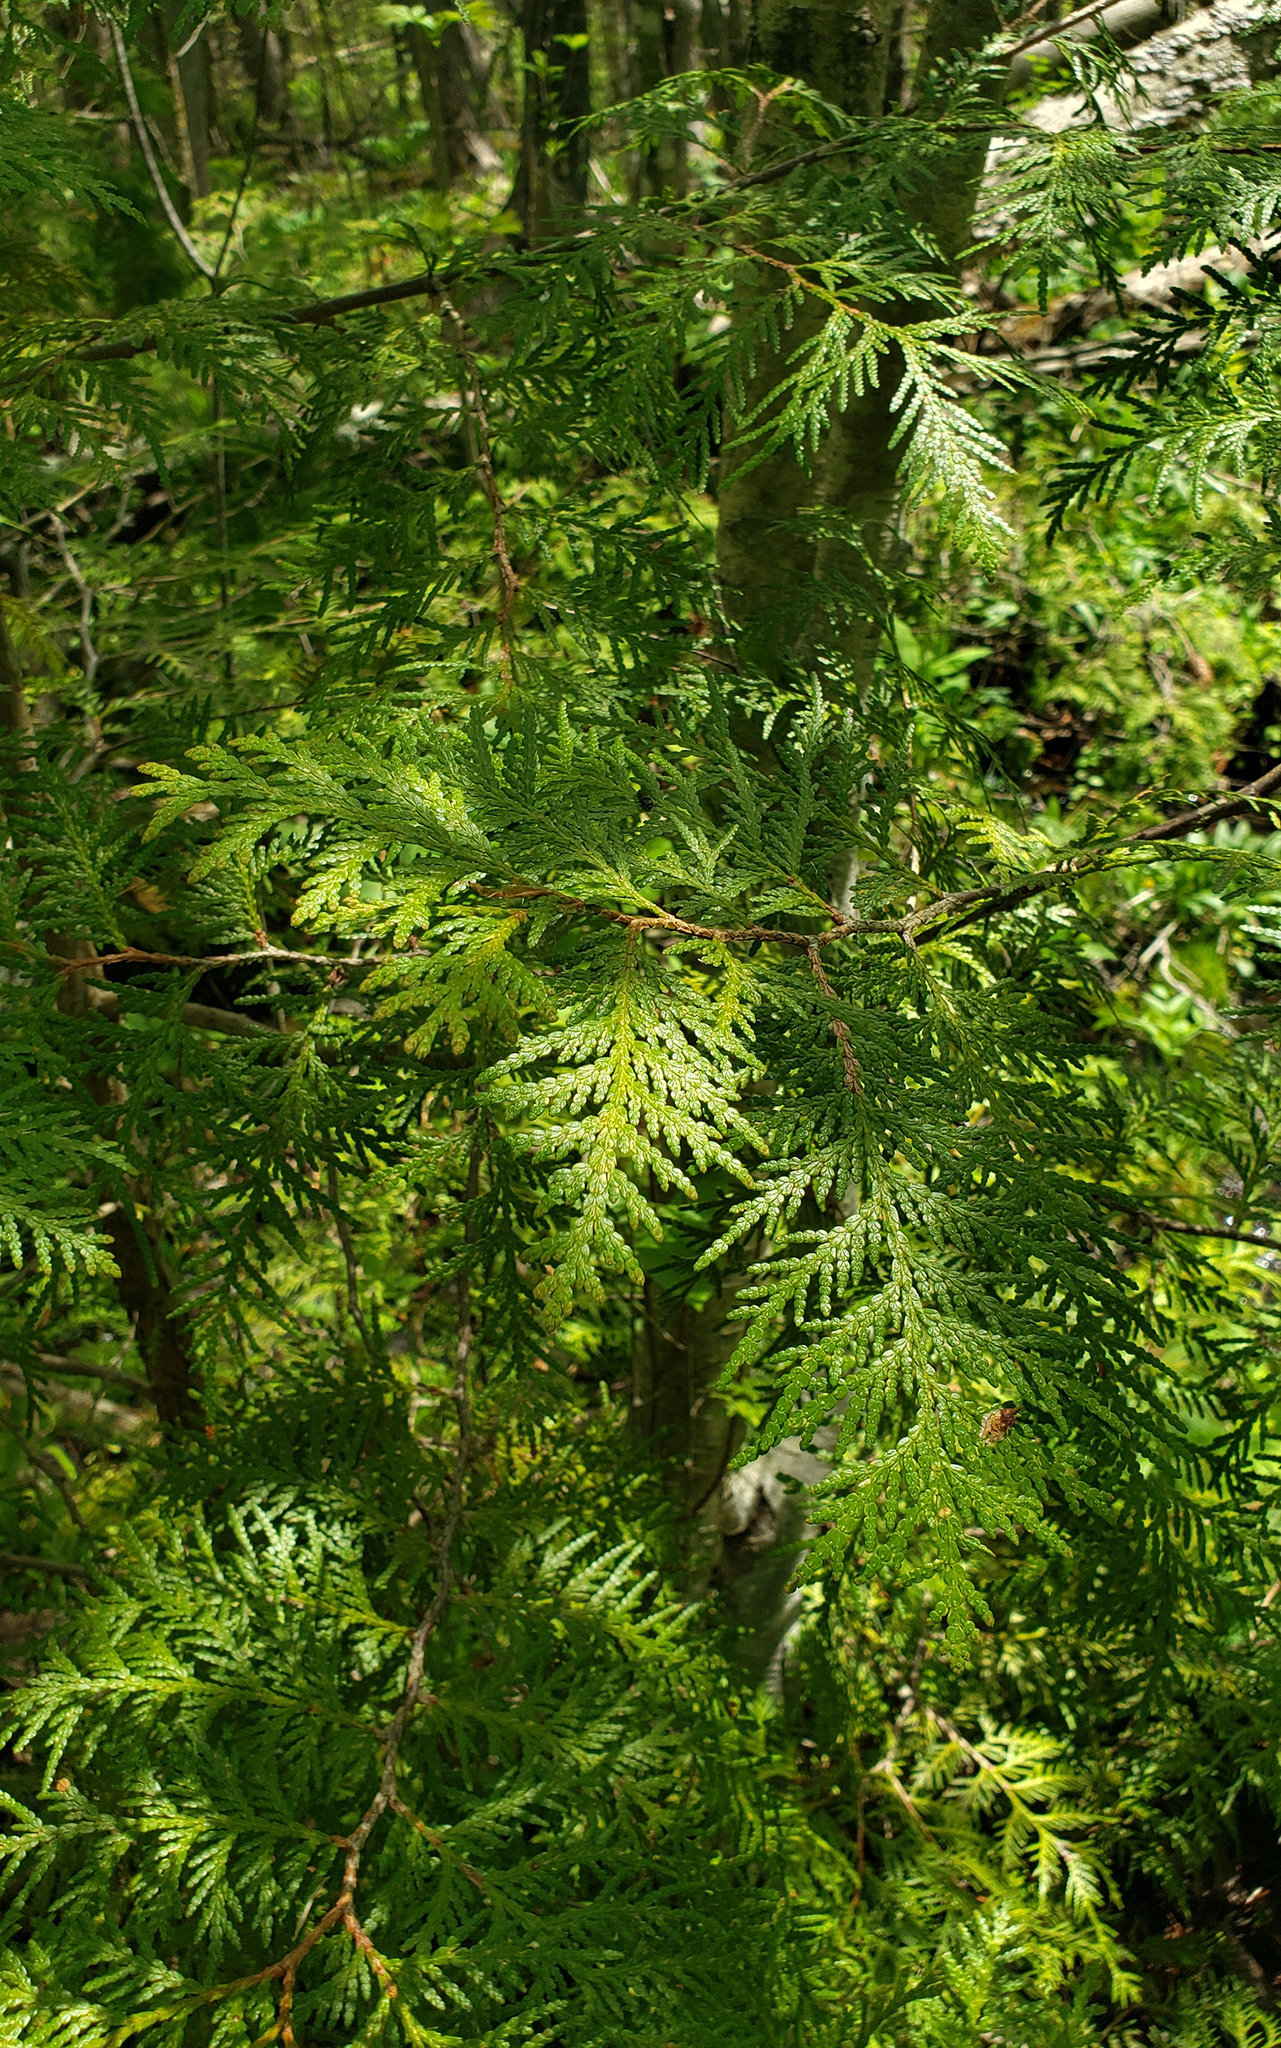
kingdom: Plantae
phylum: Tracheophyta
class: Pinopsida
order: Pinales
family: Cupressaceae
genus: Thuja
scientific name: Thuja occidentalis
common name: Northern white-cedar
